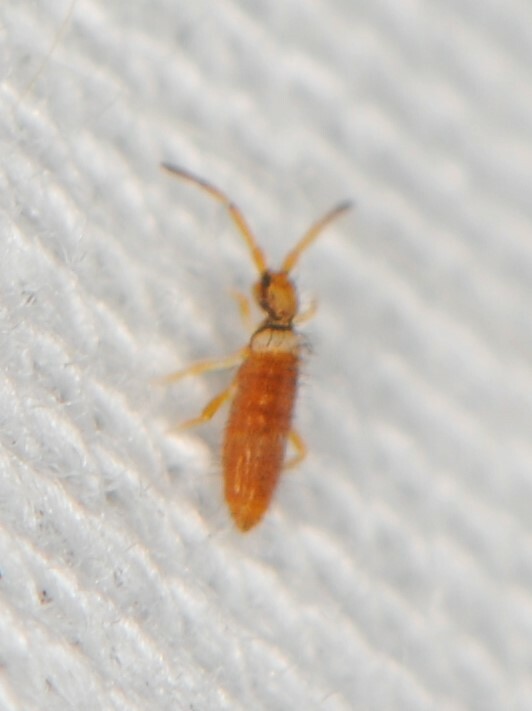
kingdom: Animalia
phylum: Arthropoda
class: Collembola
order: Entomobryomorpha
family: Entomobryidae
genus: Entomobrya
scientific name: Entomobrya atrocincta
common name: Springtail
